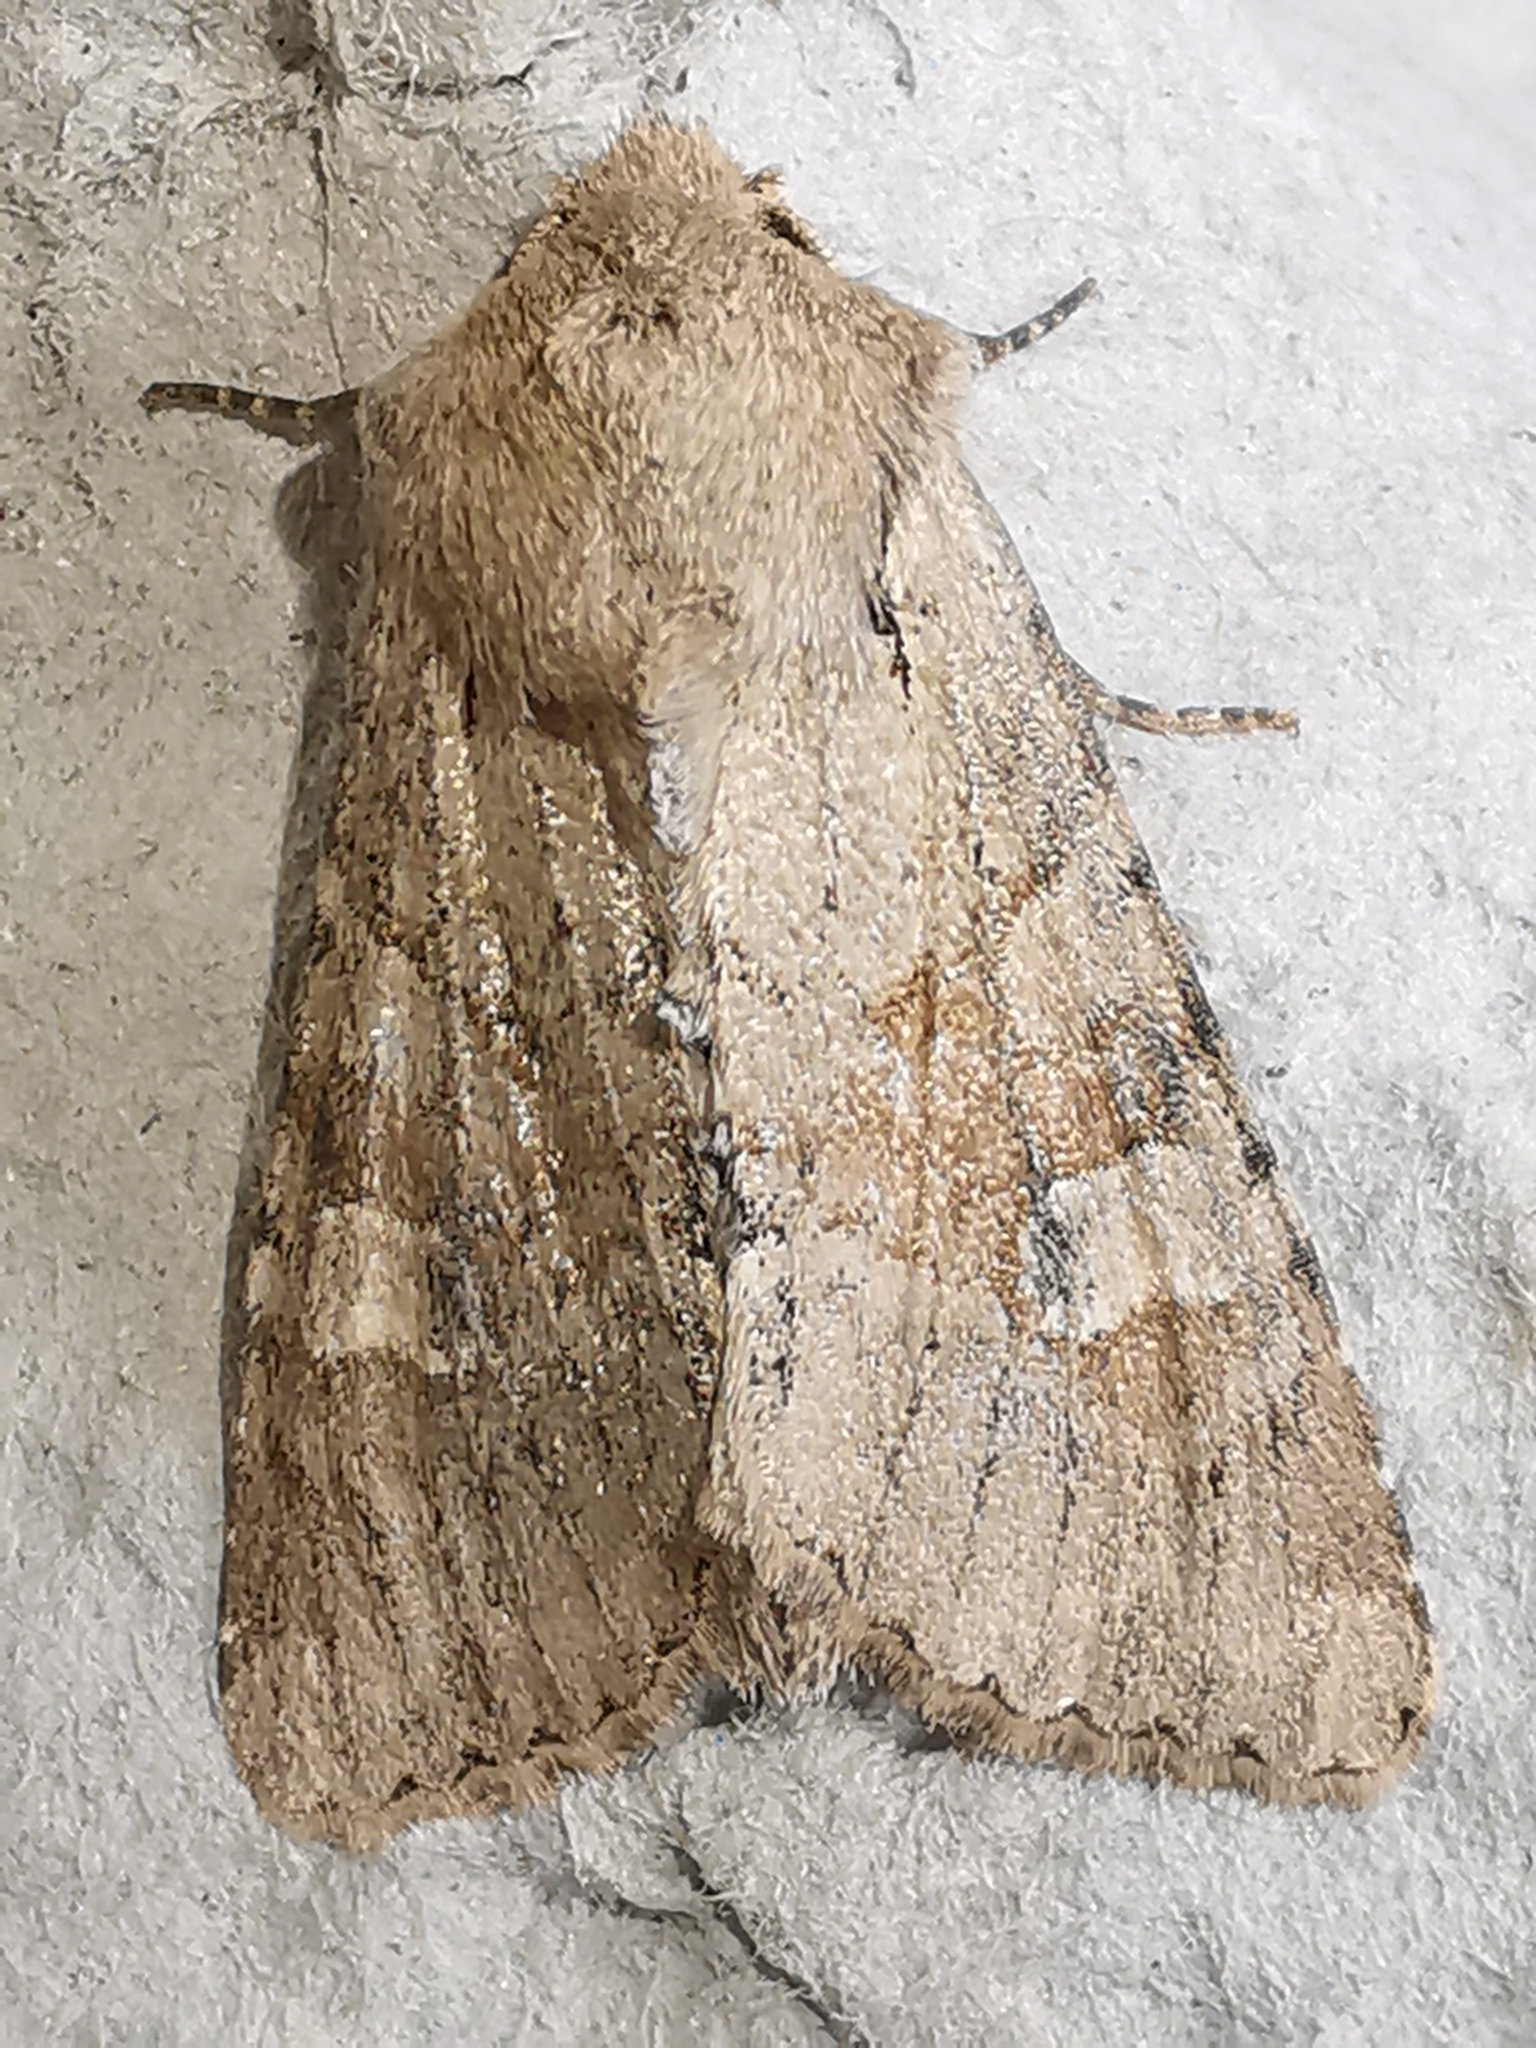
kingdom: Animalia
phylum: Arthropoda
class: Insecta
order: Lepidoptera
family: Noctuidae
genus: Apamea
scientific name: Apamea sordens
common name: Rustic shoulder-knot
